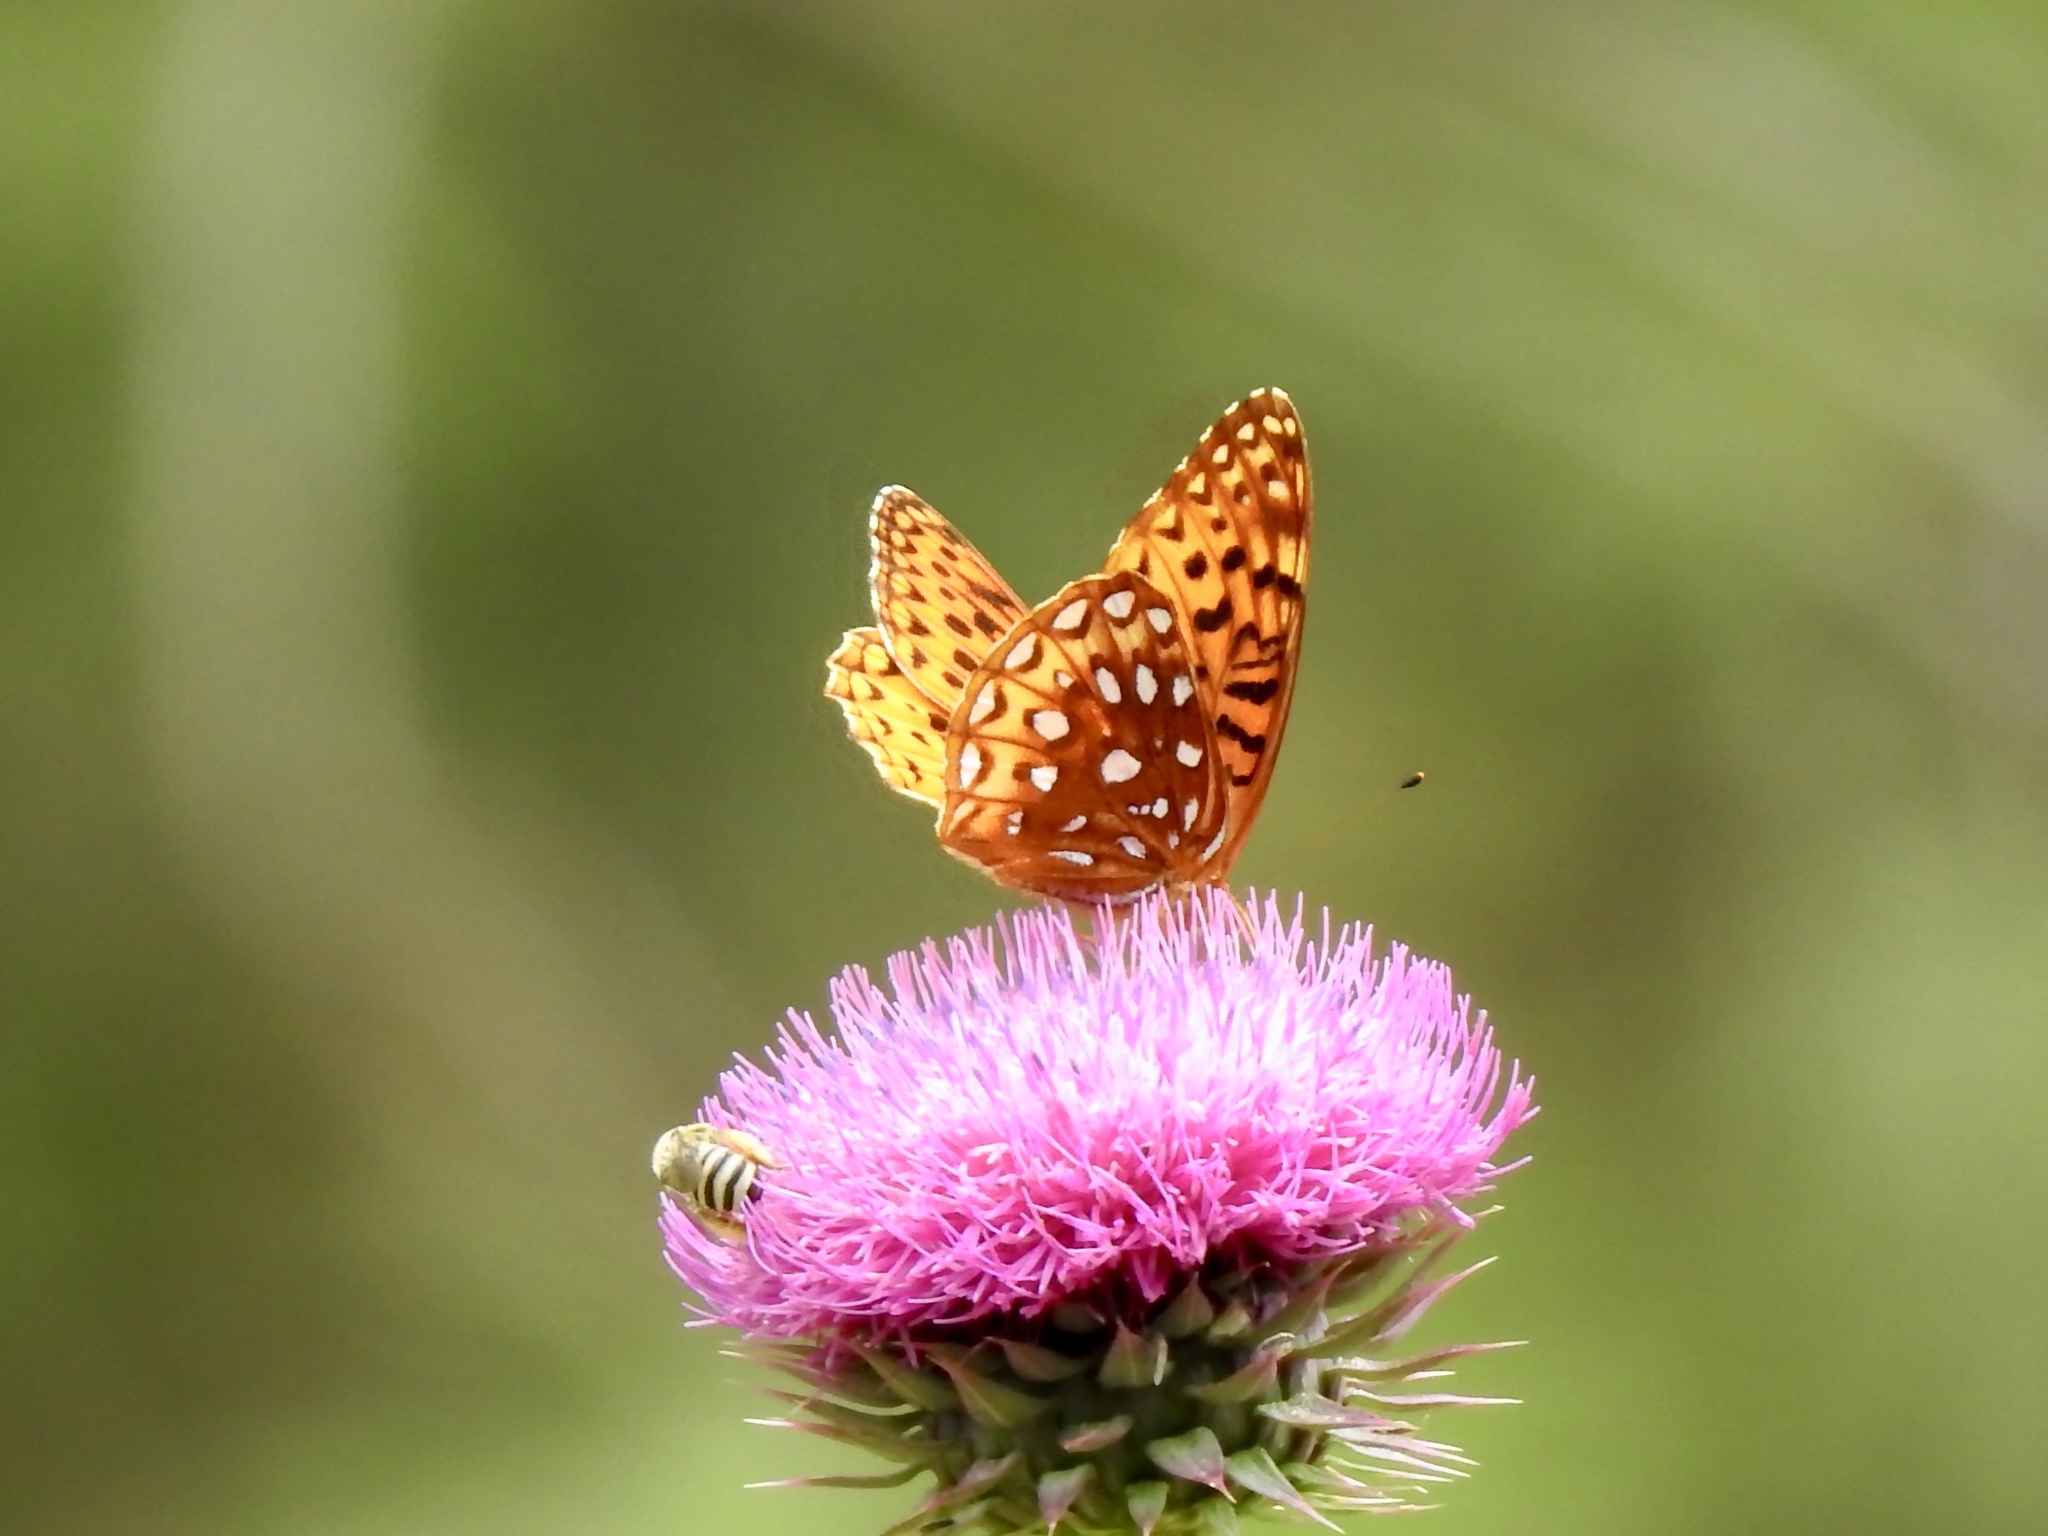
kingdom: Animalia
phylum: Arthropoda
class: Insecta
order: Lepidoptera
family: Nymphalidae
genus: Speyeria
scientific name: Speyeria atlantis
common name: Atlantis fritillary
